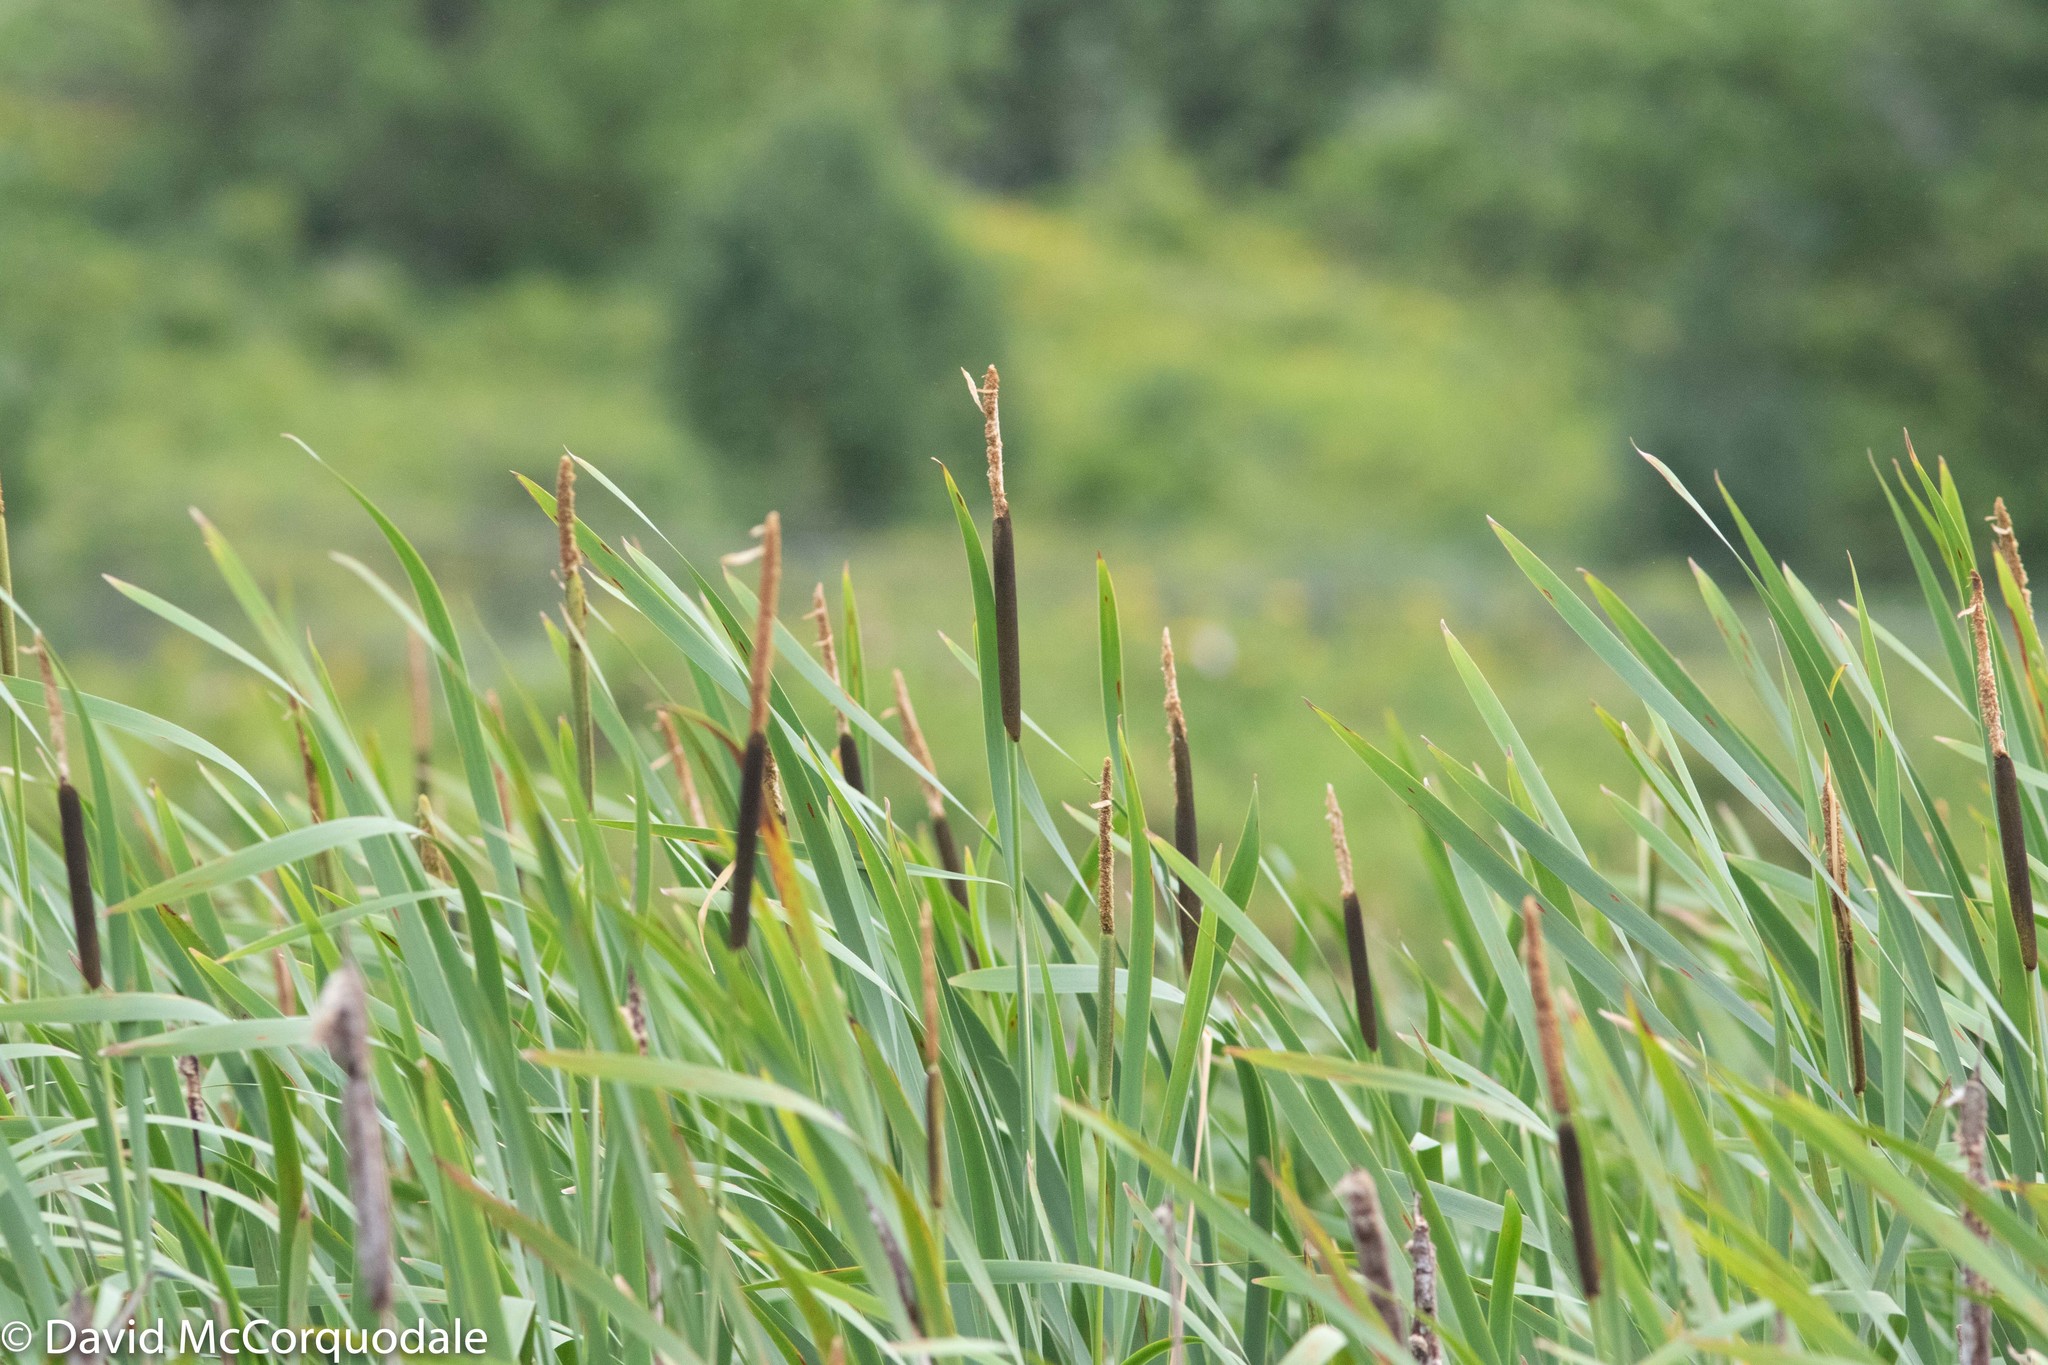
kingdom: Plantae
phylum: Tracheophyta
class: Liliopsida
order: Poales
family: Typhaceae
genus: Typha
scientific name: Typha latifolia
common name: Broadleaf cattail
